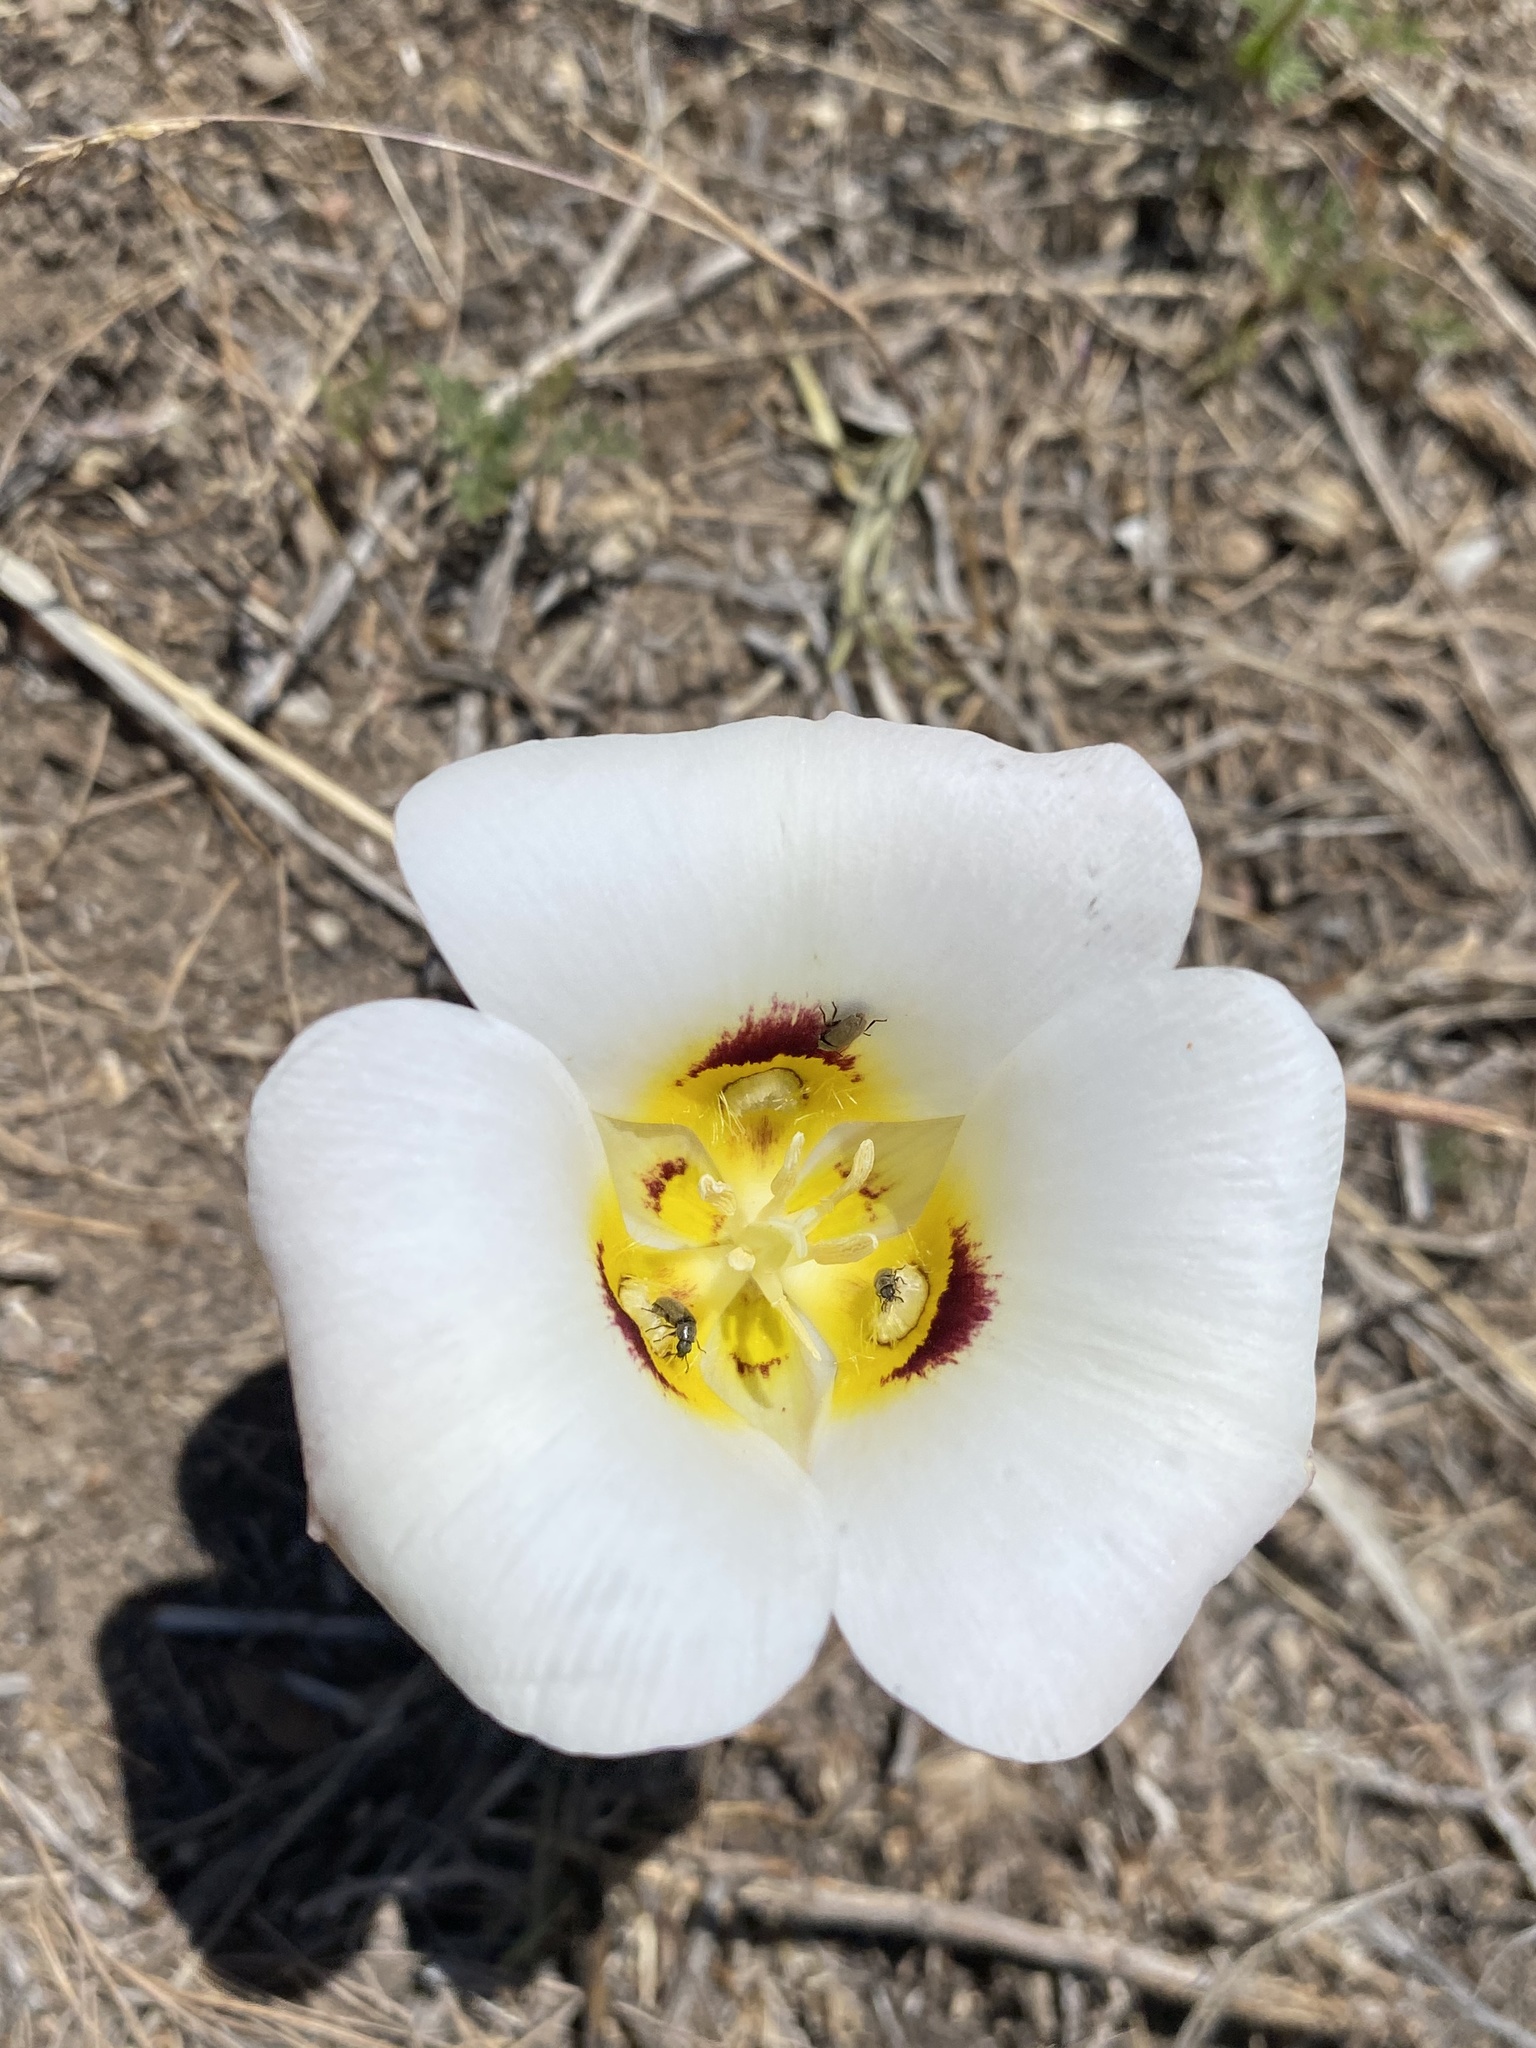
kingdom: Plantae
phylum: Tracheophyta
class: Liliopsida
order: Liliales
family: Liliaceae
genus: Calochortus
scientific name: Calochortus nuttallii
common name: Sego-lily
